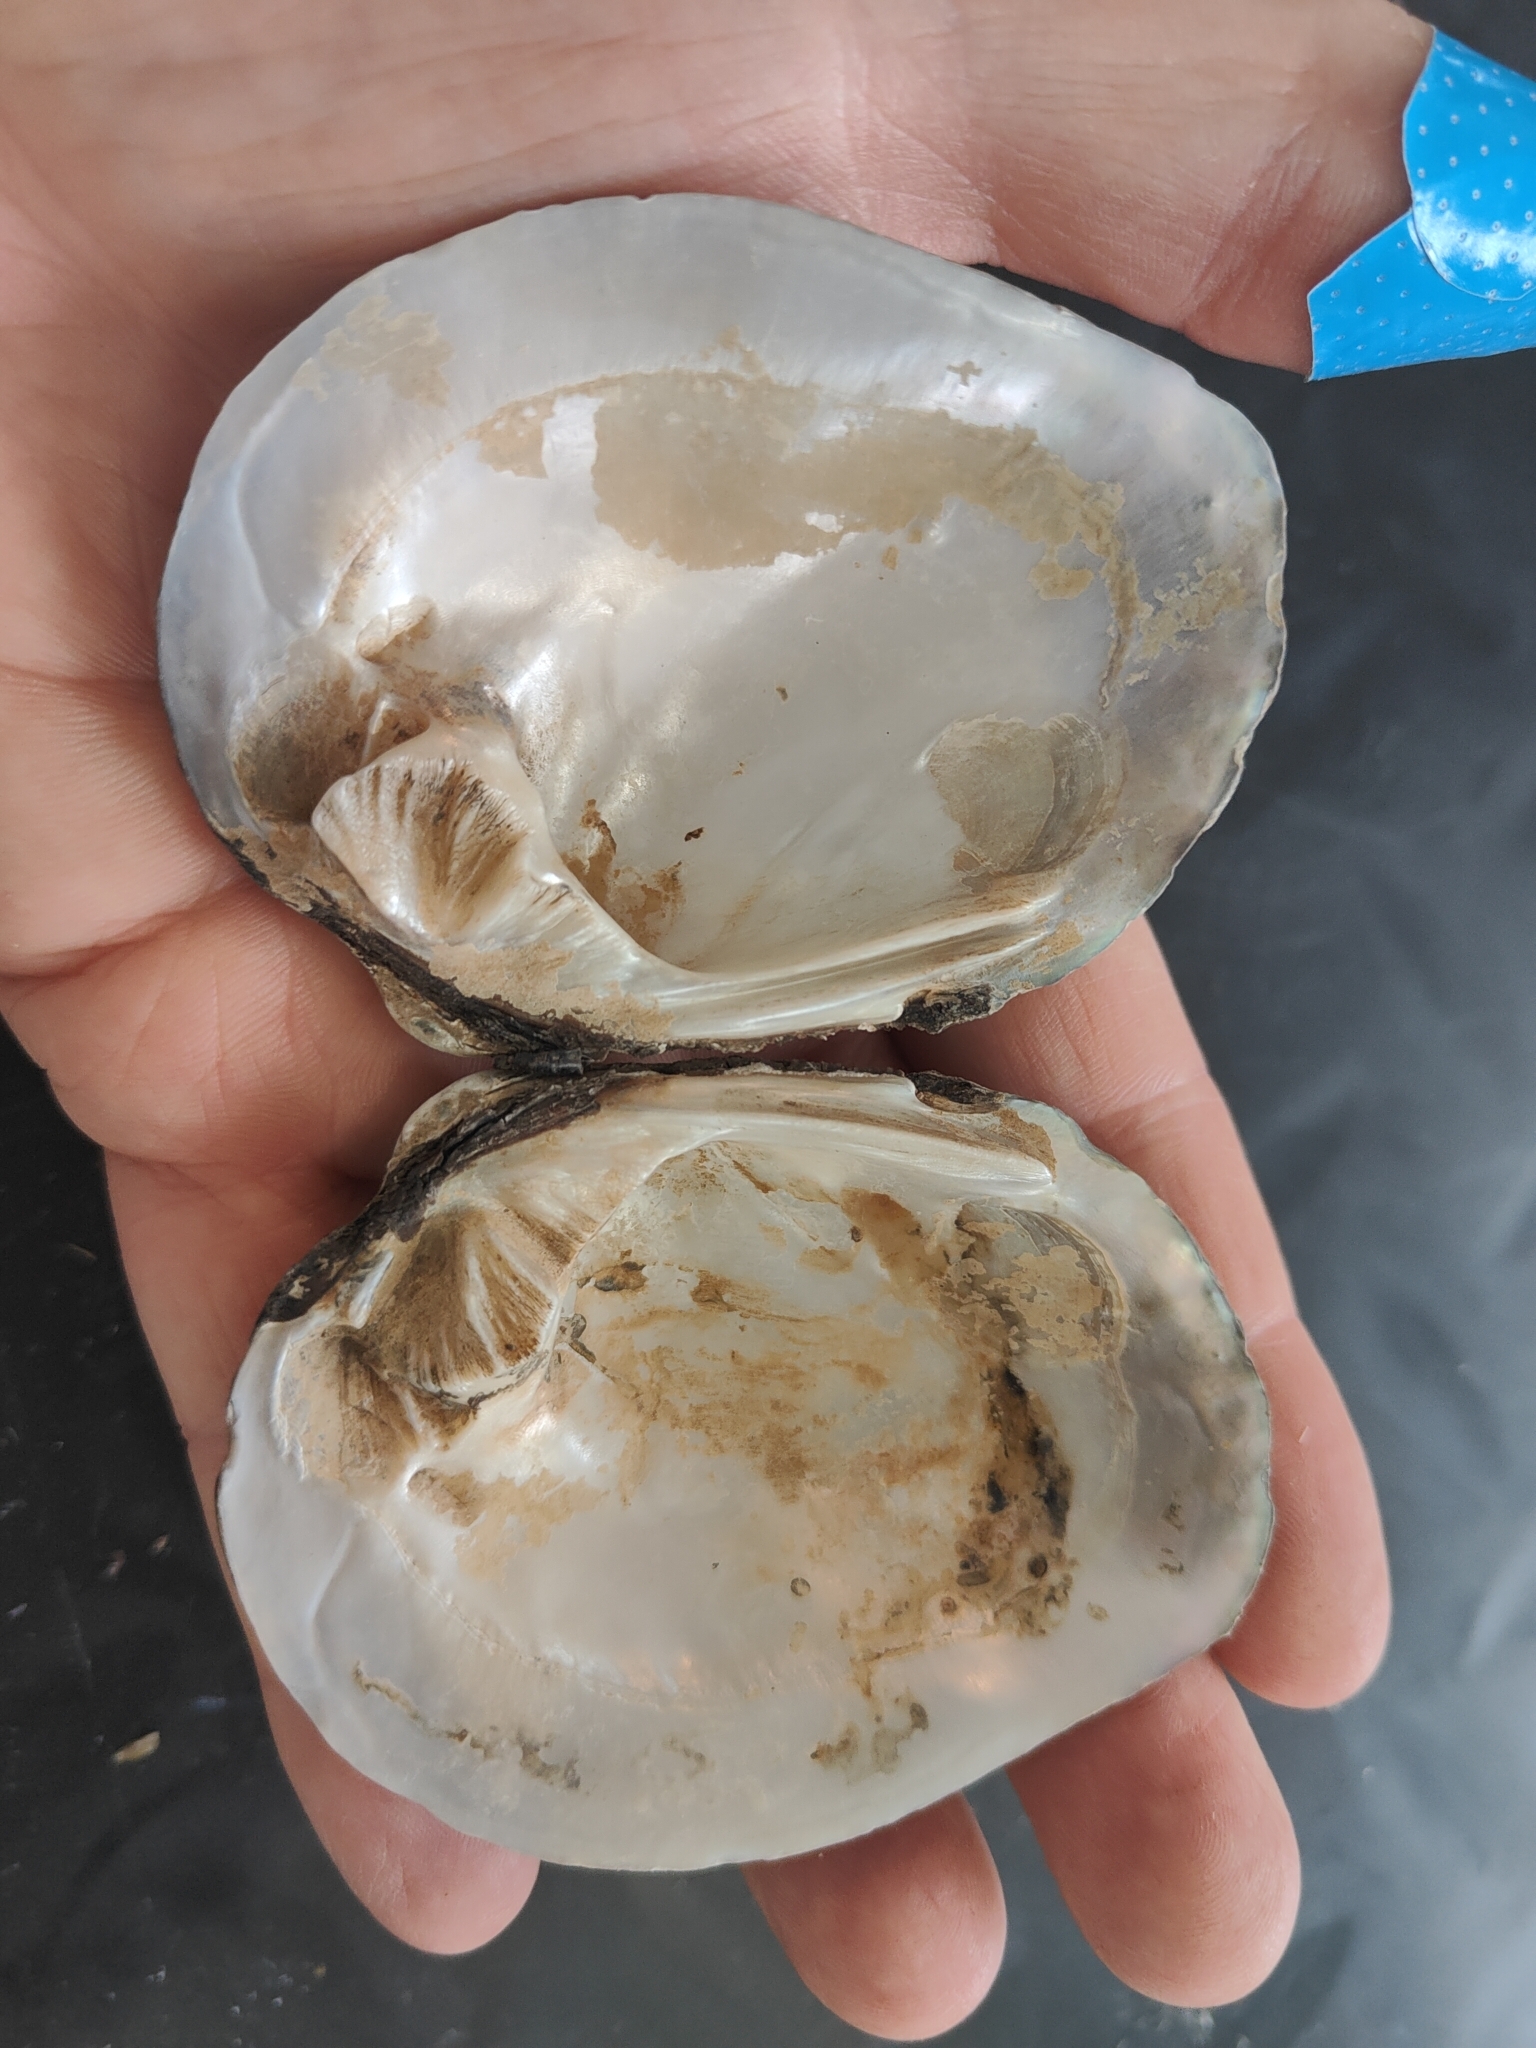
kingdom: Animalia
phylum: Mollusca
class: Bivalvia
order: Unionida
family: Unionidae
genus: Cyclonaias
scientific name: Cyclonaias pustulosa
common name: Pimpleback
